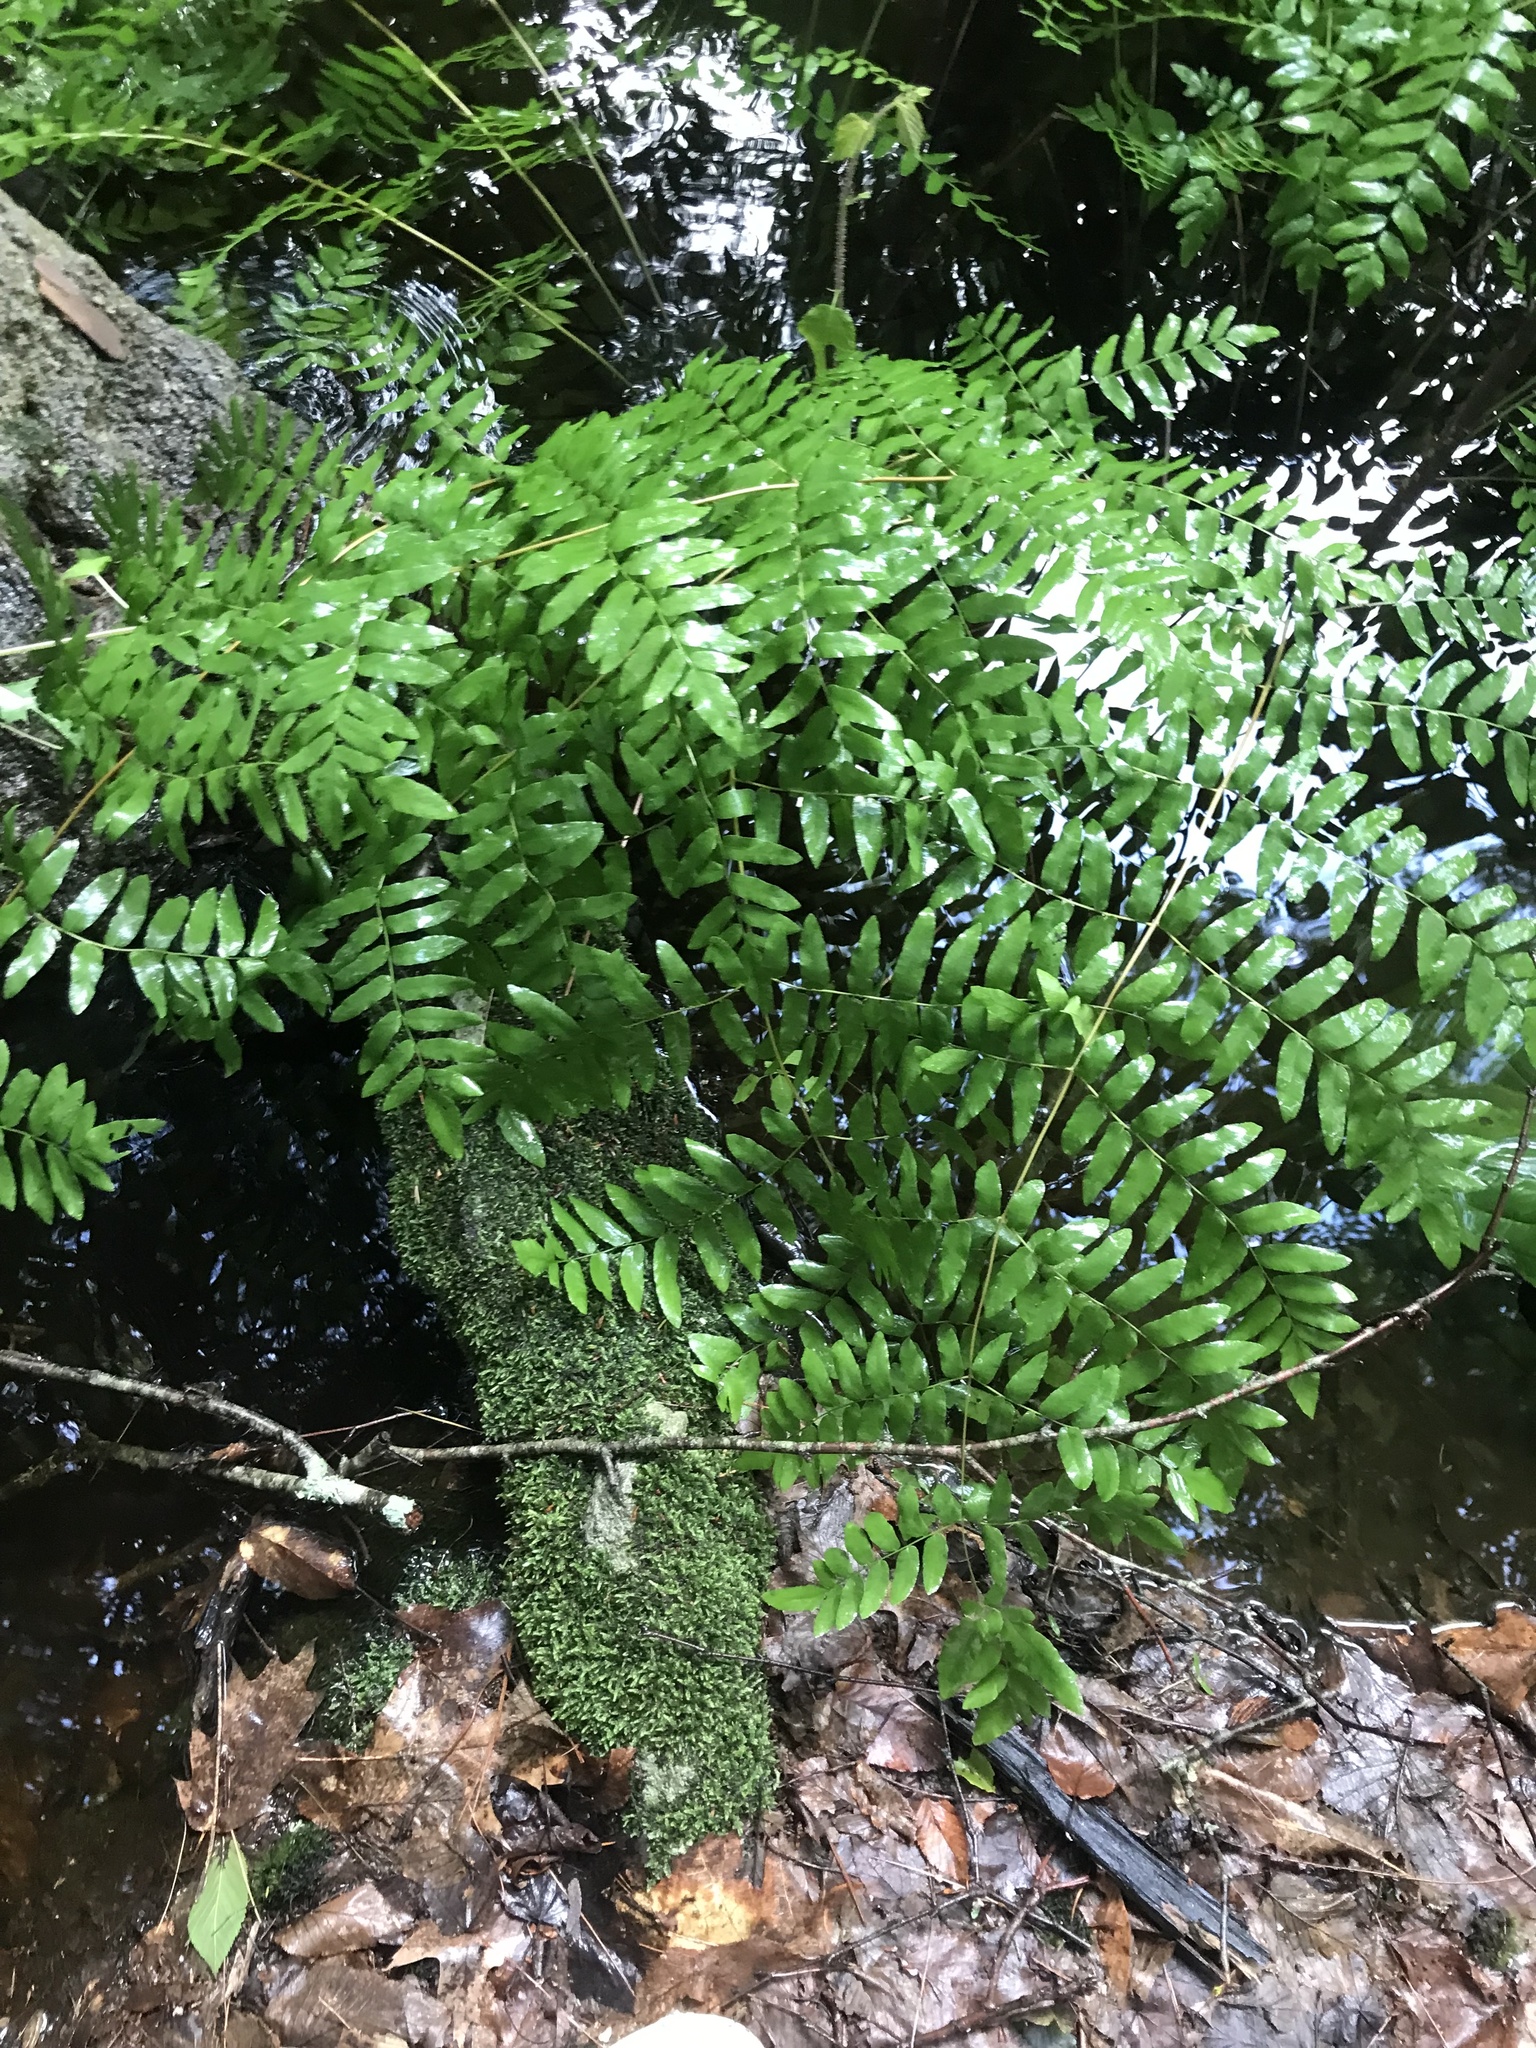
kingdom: Plantae
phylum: Tracheophyta
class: Polypodiopsida
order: Osmundales
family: Osmundaceae
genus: Osmunda
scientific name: Osmunda spectabilis
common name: American royal fern
